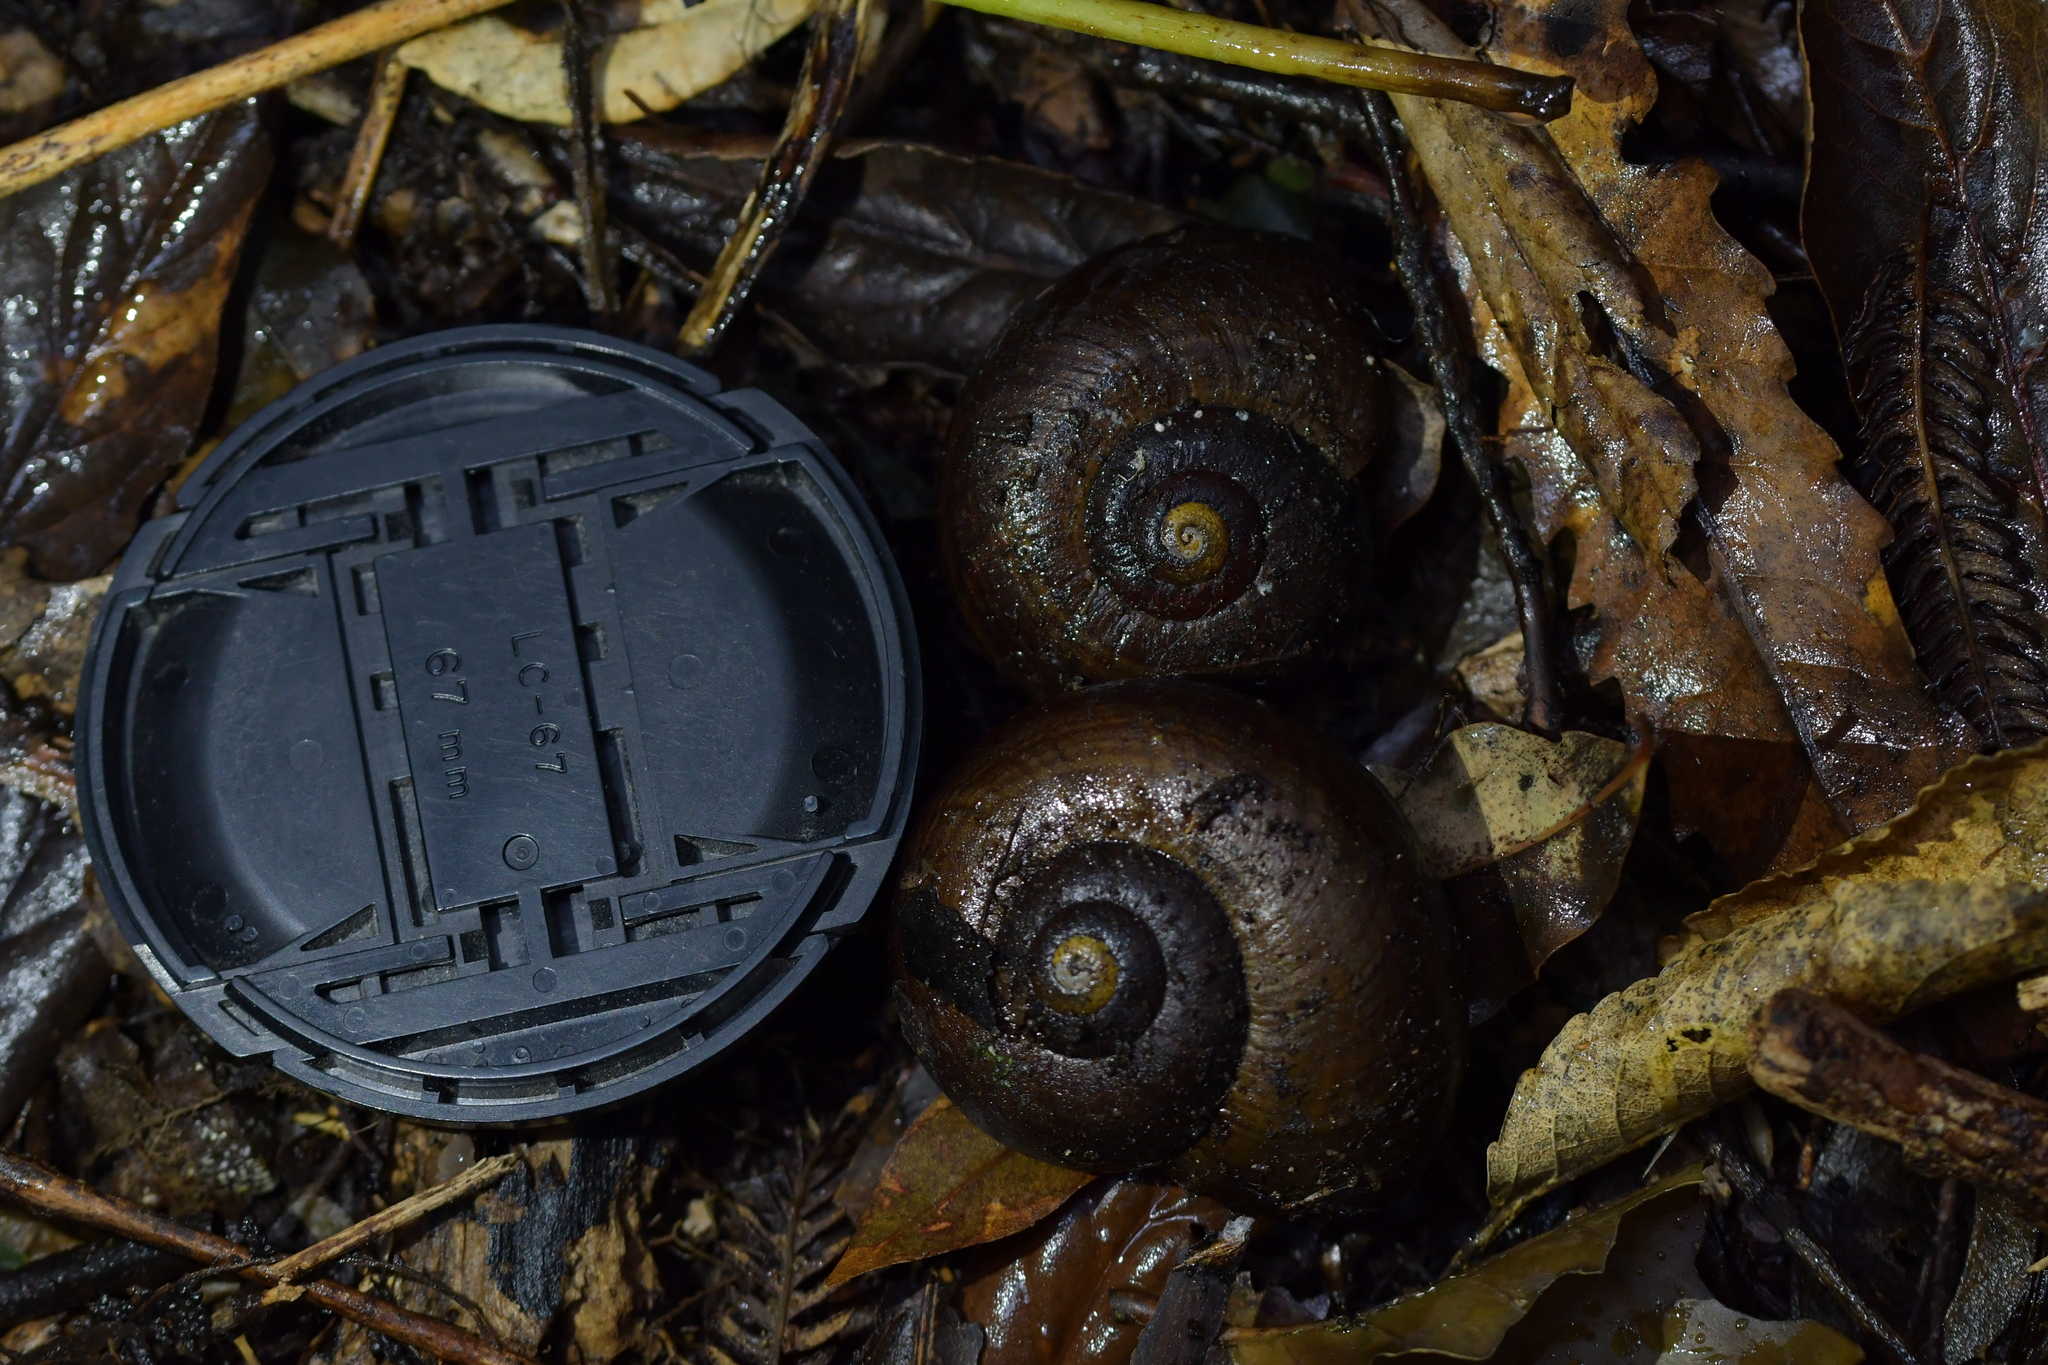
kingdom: Animalia
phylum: Mollusca
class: Gastropoda
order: Stylommatophora
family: Rhytididae
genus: Powelliphanta
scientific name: Powelliphanta traversi
